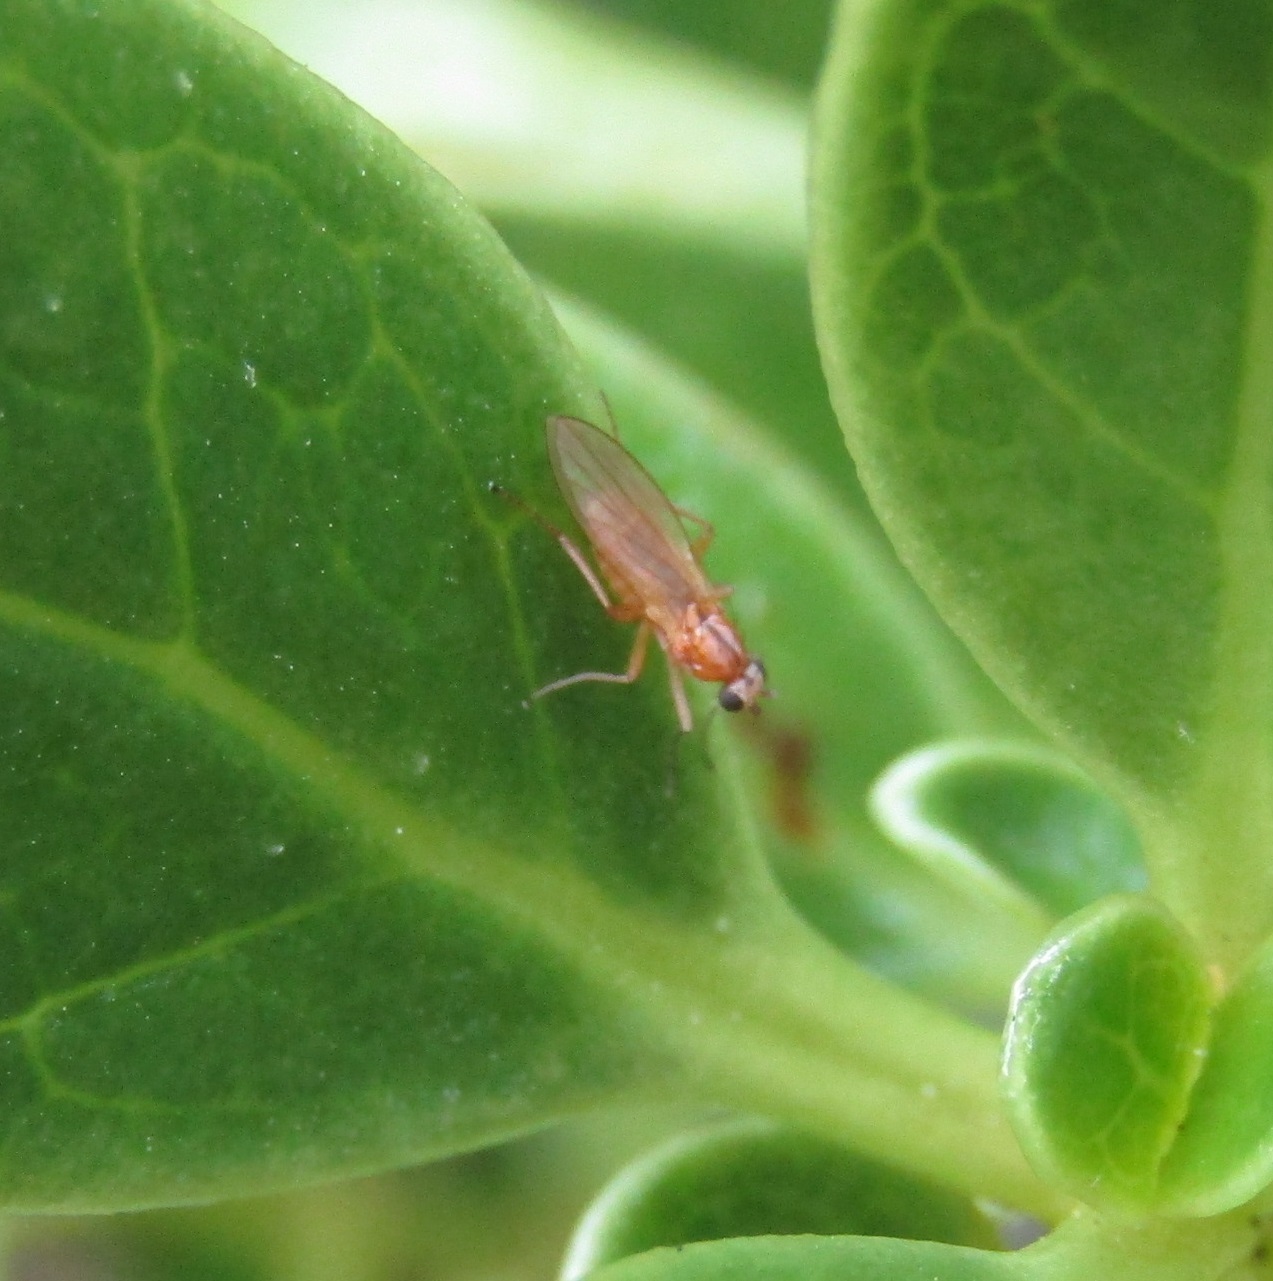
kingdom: Animalia
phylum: Arthropoda
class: Insecta
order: Diptera
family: Lonchopteridae
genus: Lonchoptera
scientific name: Lonchoptera bifurcata
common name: Spear-winged fly
